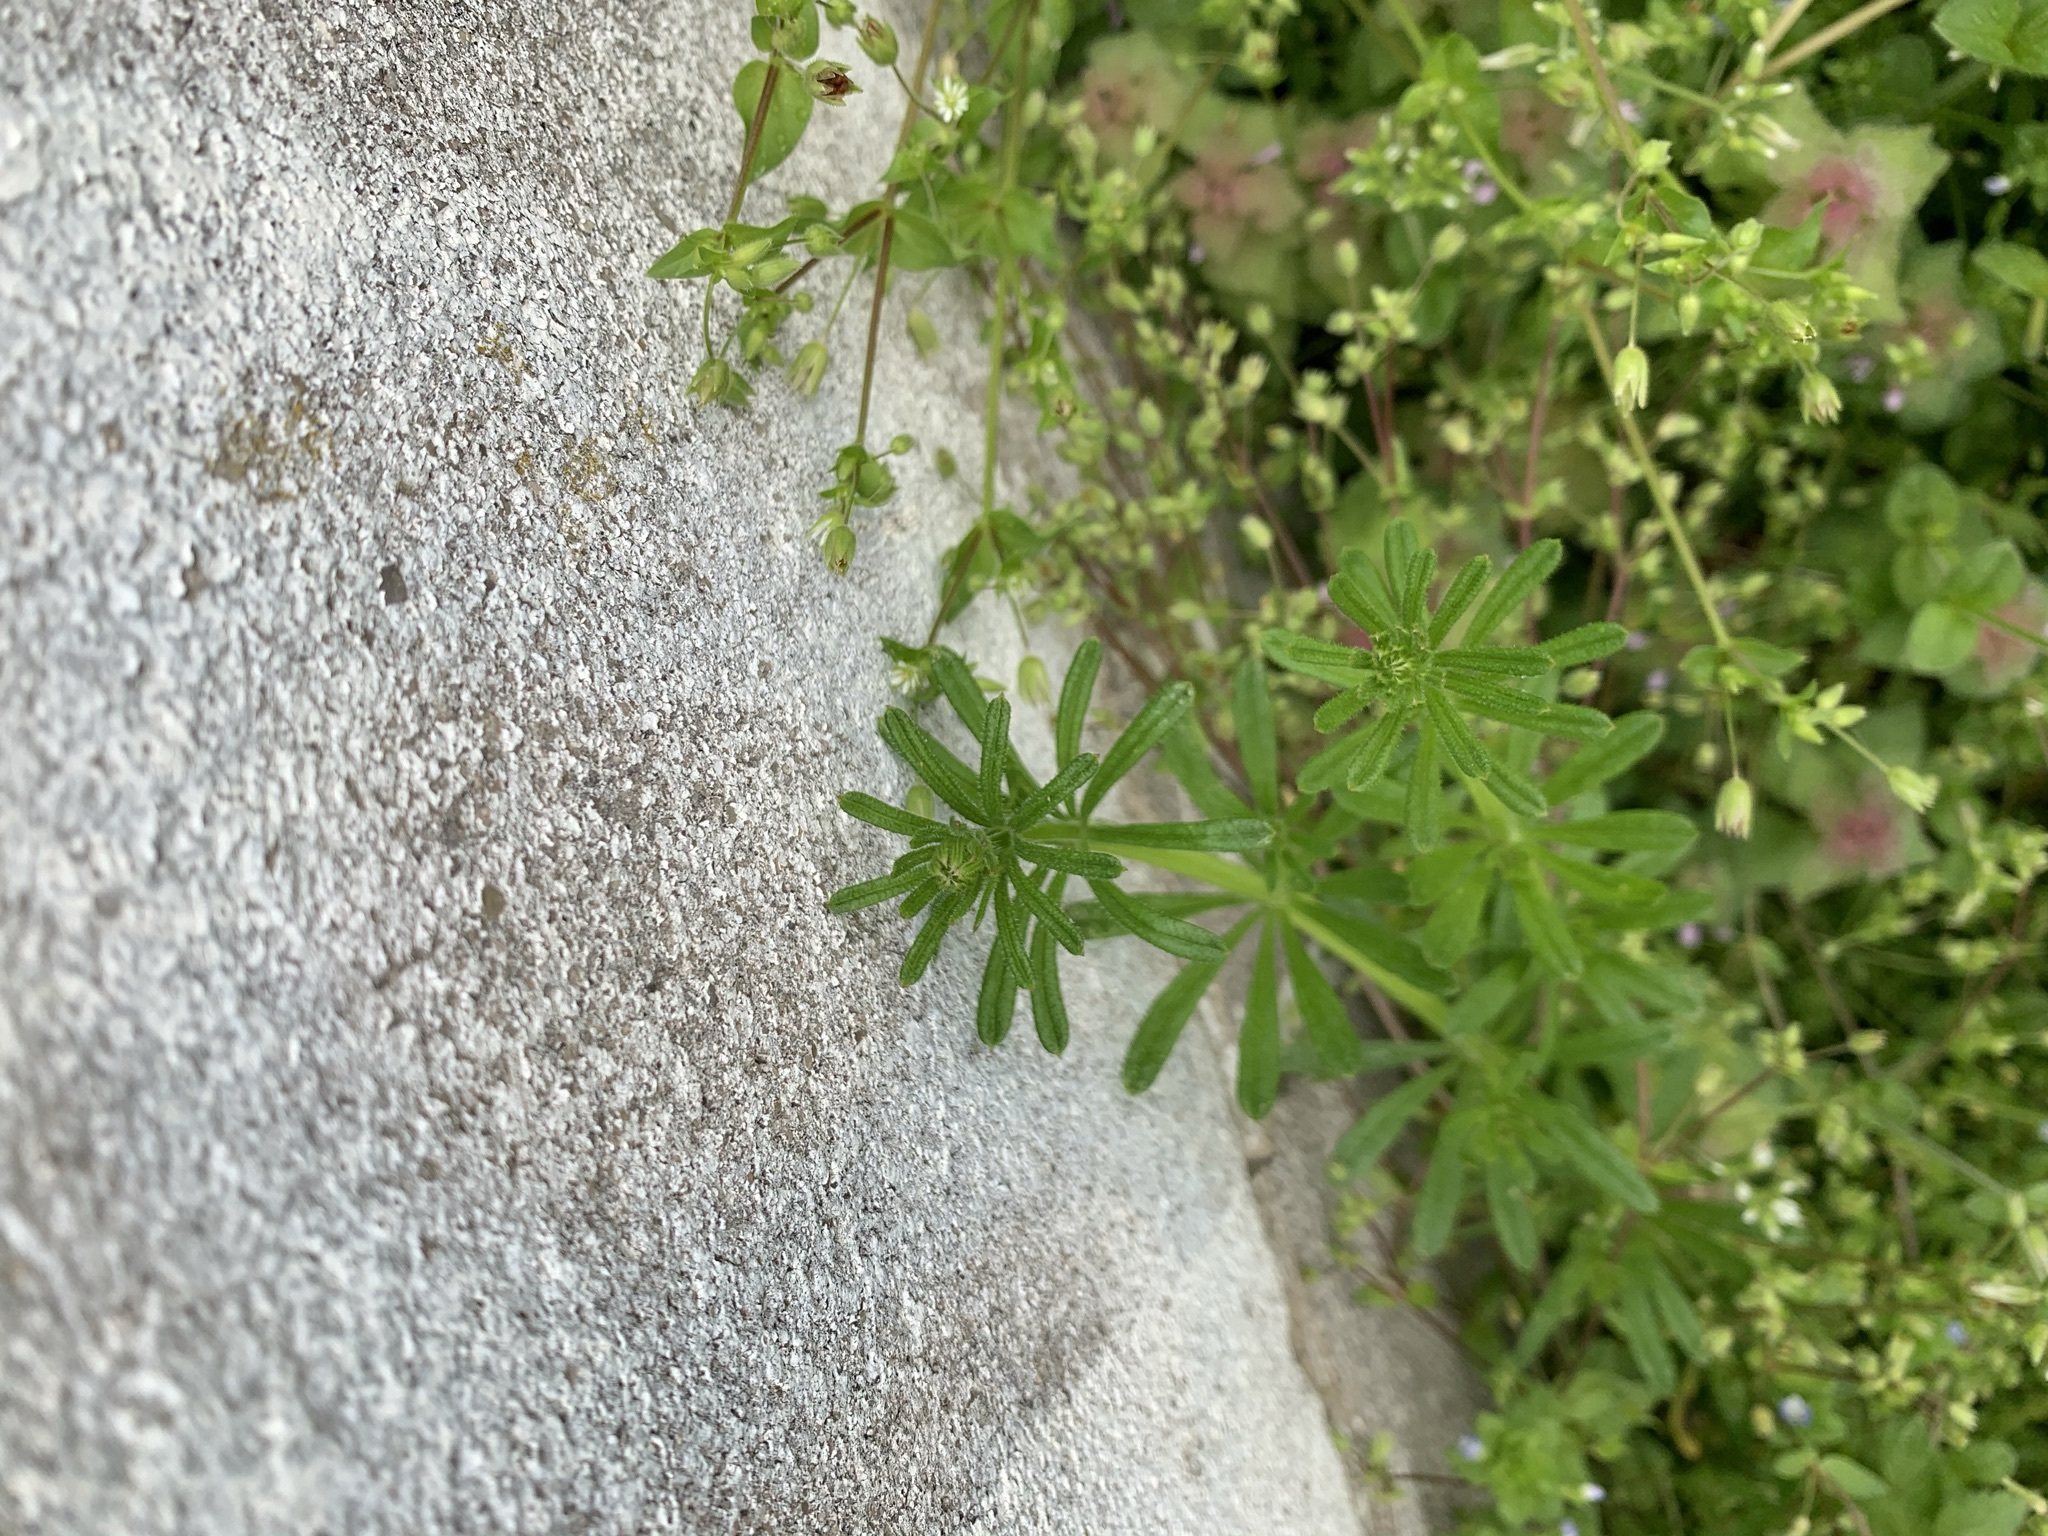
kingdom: Plantae
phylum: Tracheophyta
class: Magnoliopsida
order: Gentianales
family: Rubiaceae
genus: Galium
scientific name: Galium aparine
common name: Cleavers
